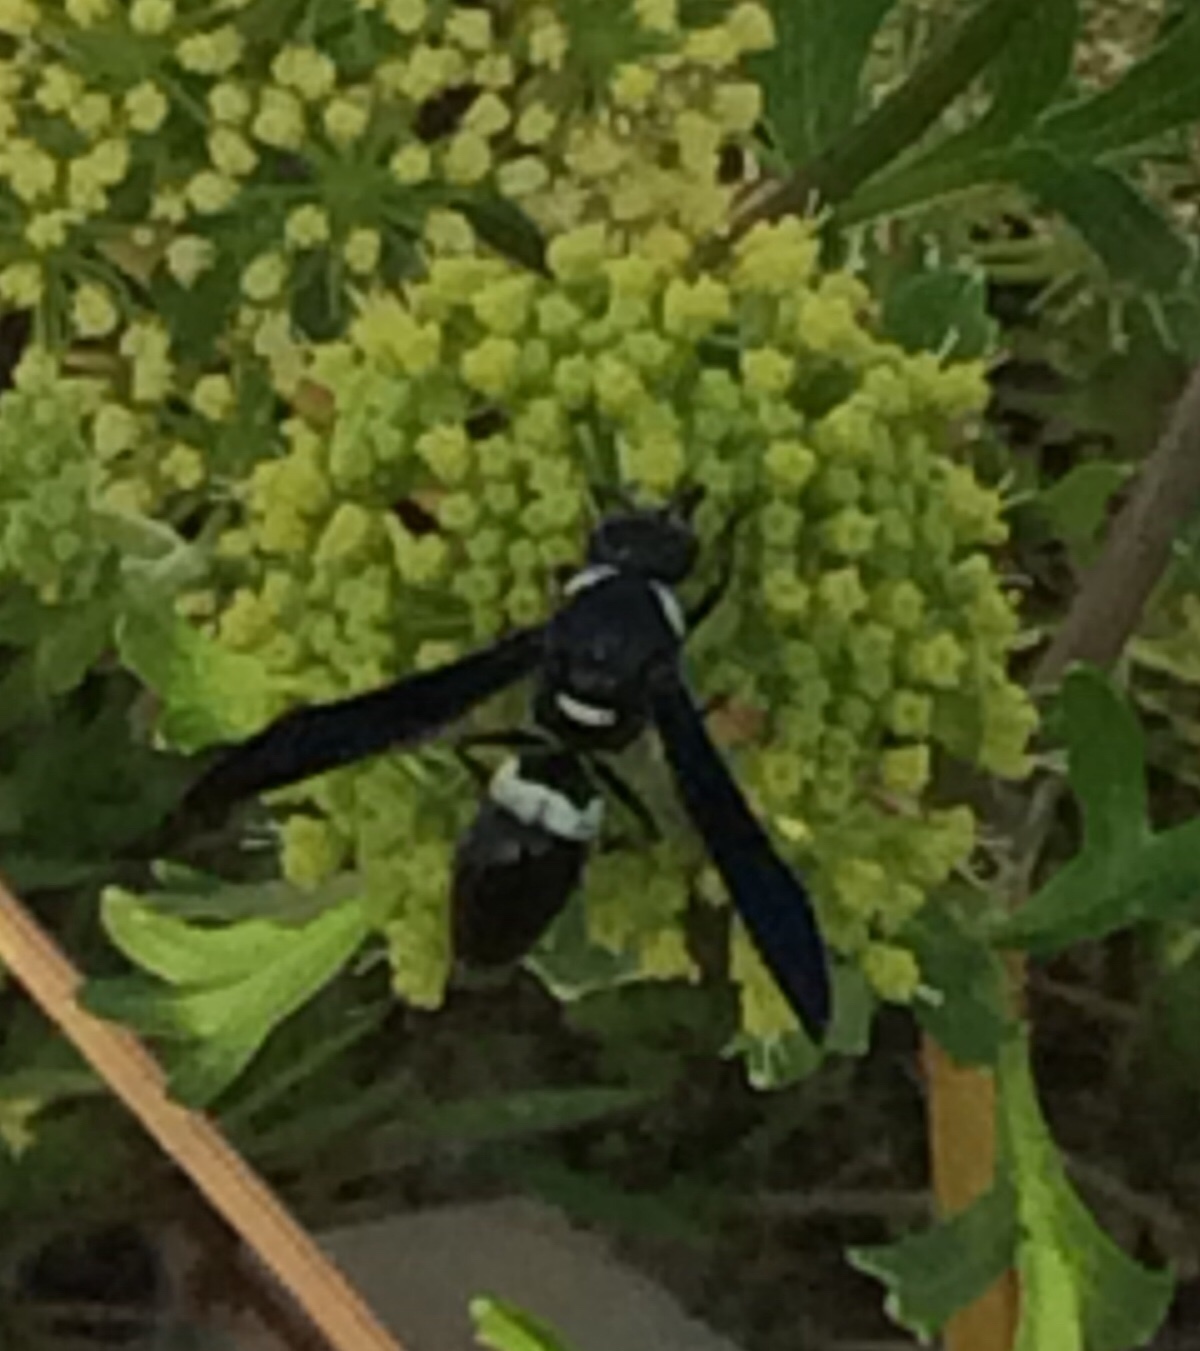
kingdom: Animalia
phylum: Arthropoda
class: Insecta
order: Hymenoptera
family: Eumenidae
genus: Monobia
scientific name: Monobia quadridens
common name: Four-toothed mason wasp
